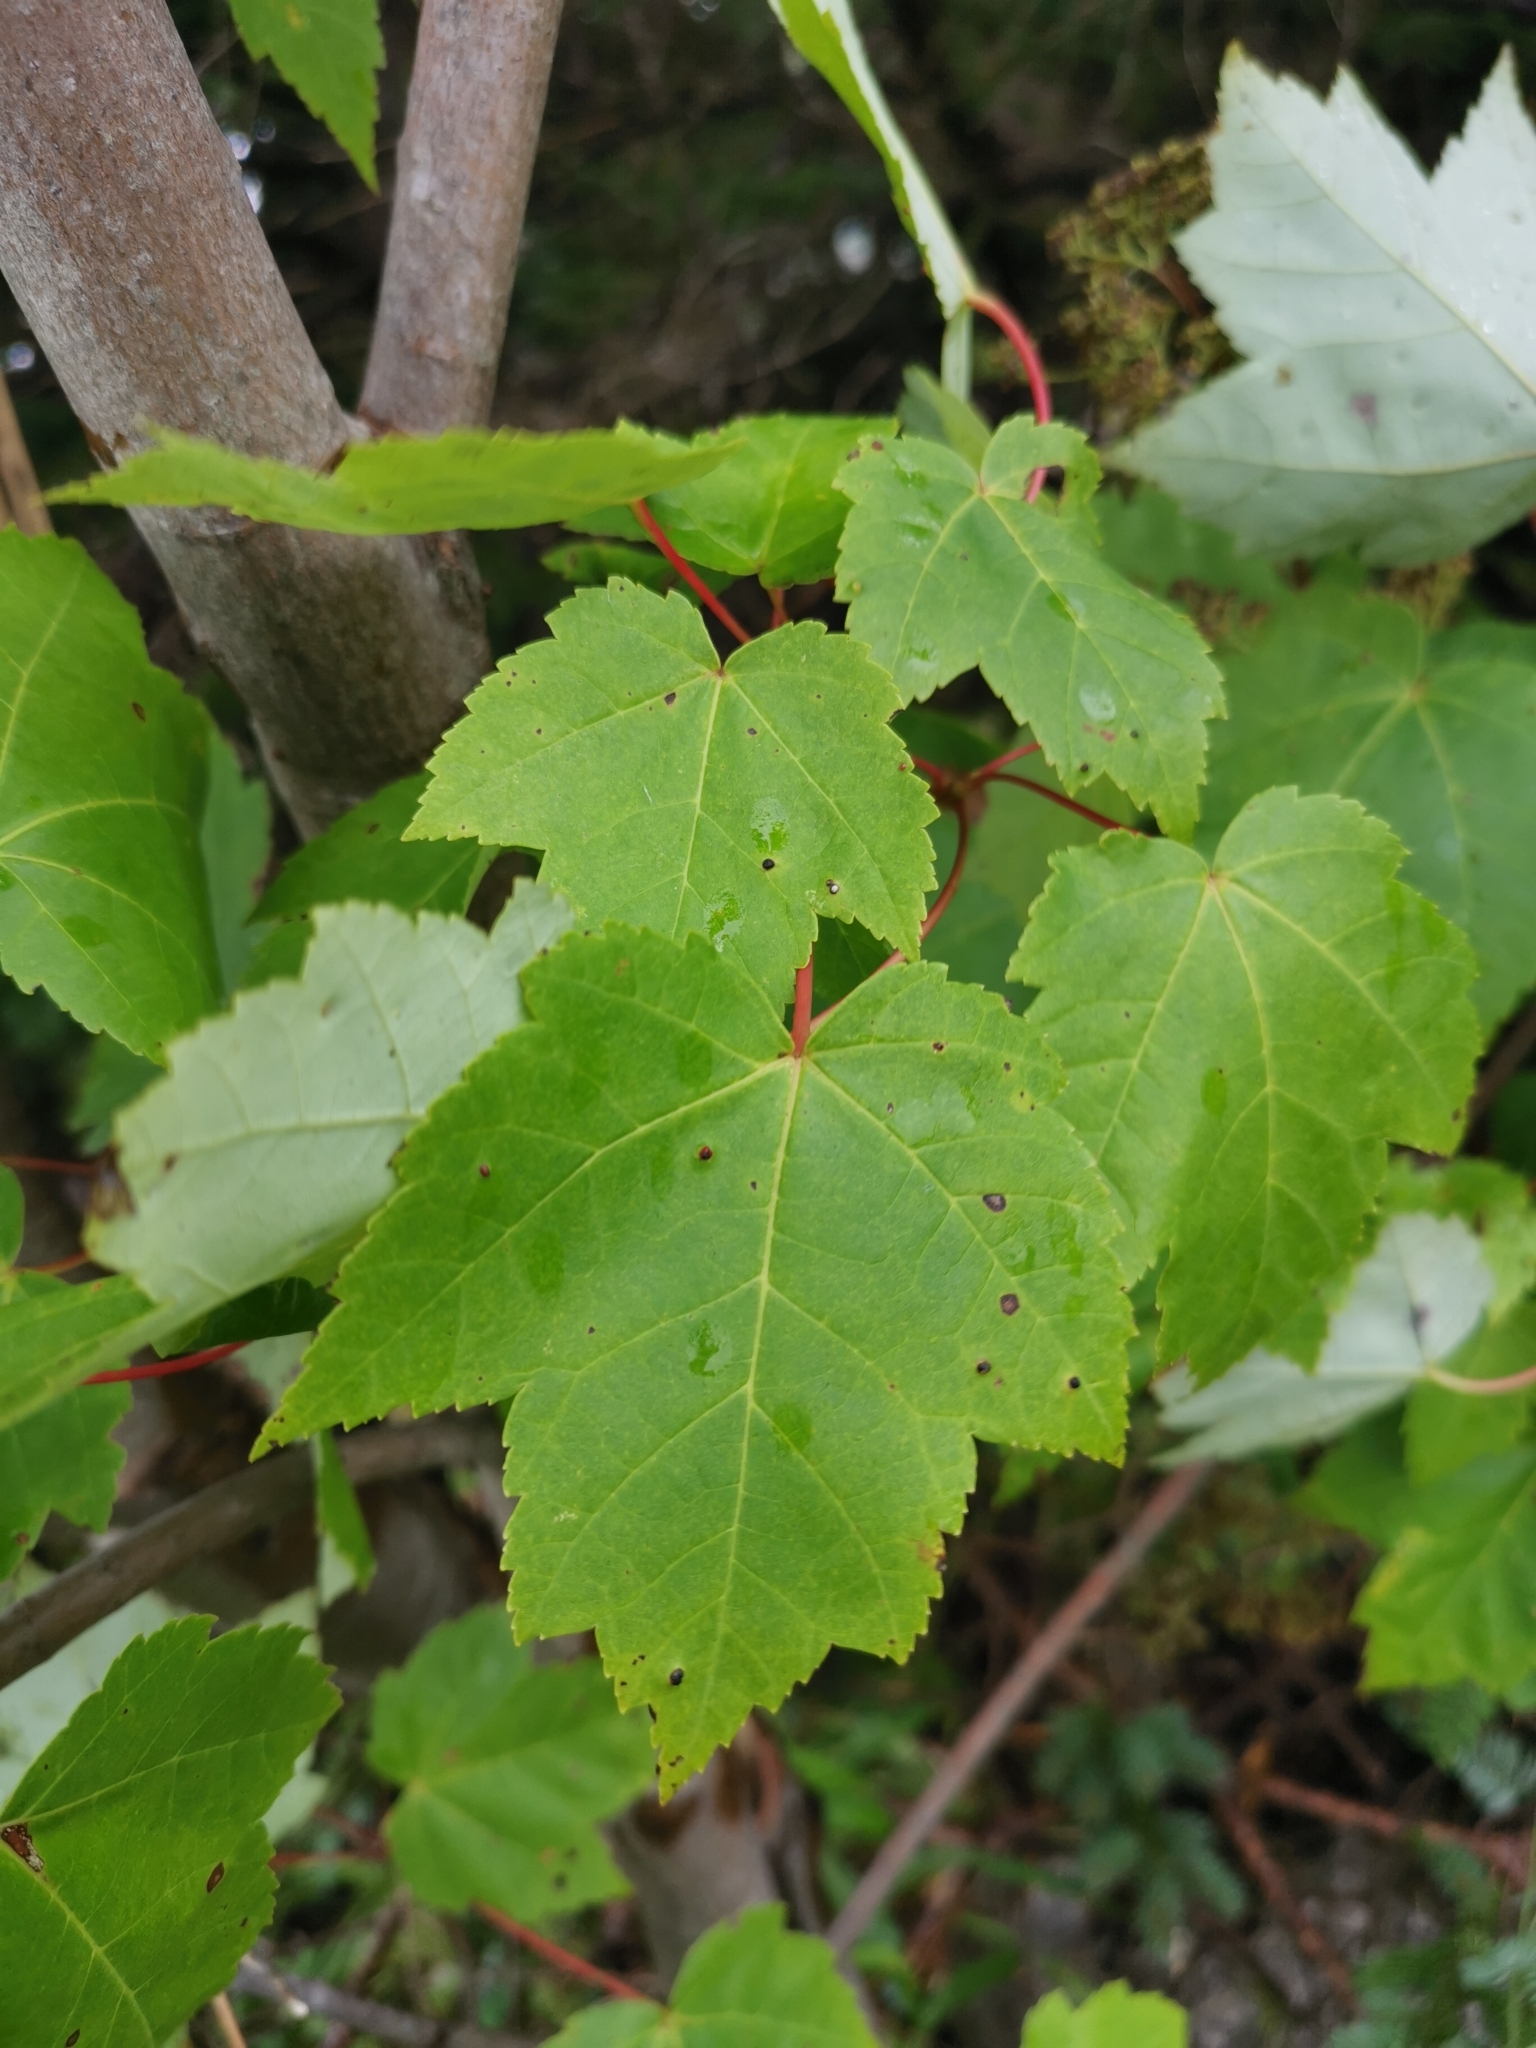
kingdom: Plantae
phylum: Tracheophyta
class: Magnoliopsida
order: Sapindales
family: Sapindaceae
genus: Acer
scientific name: Acer rubrum
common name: Red maple
